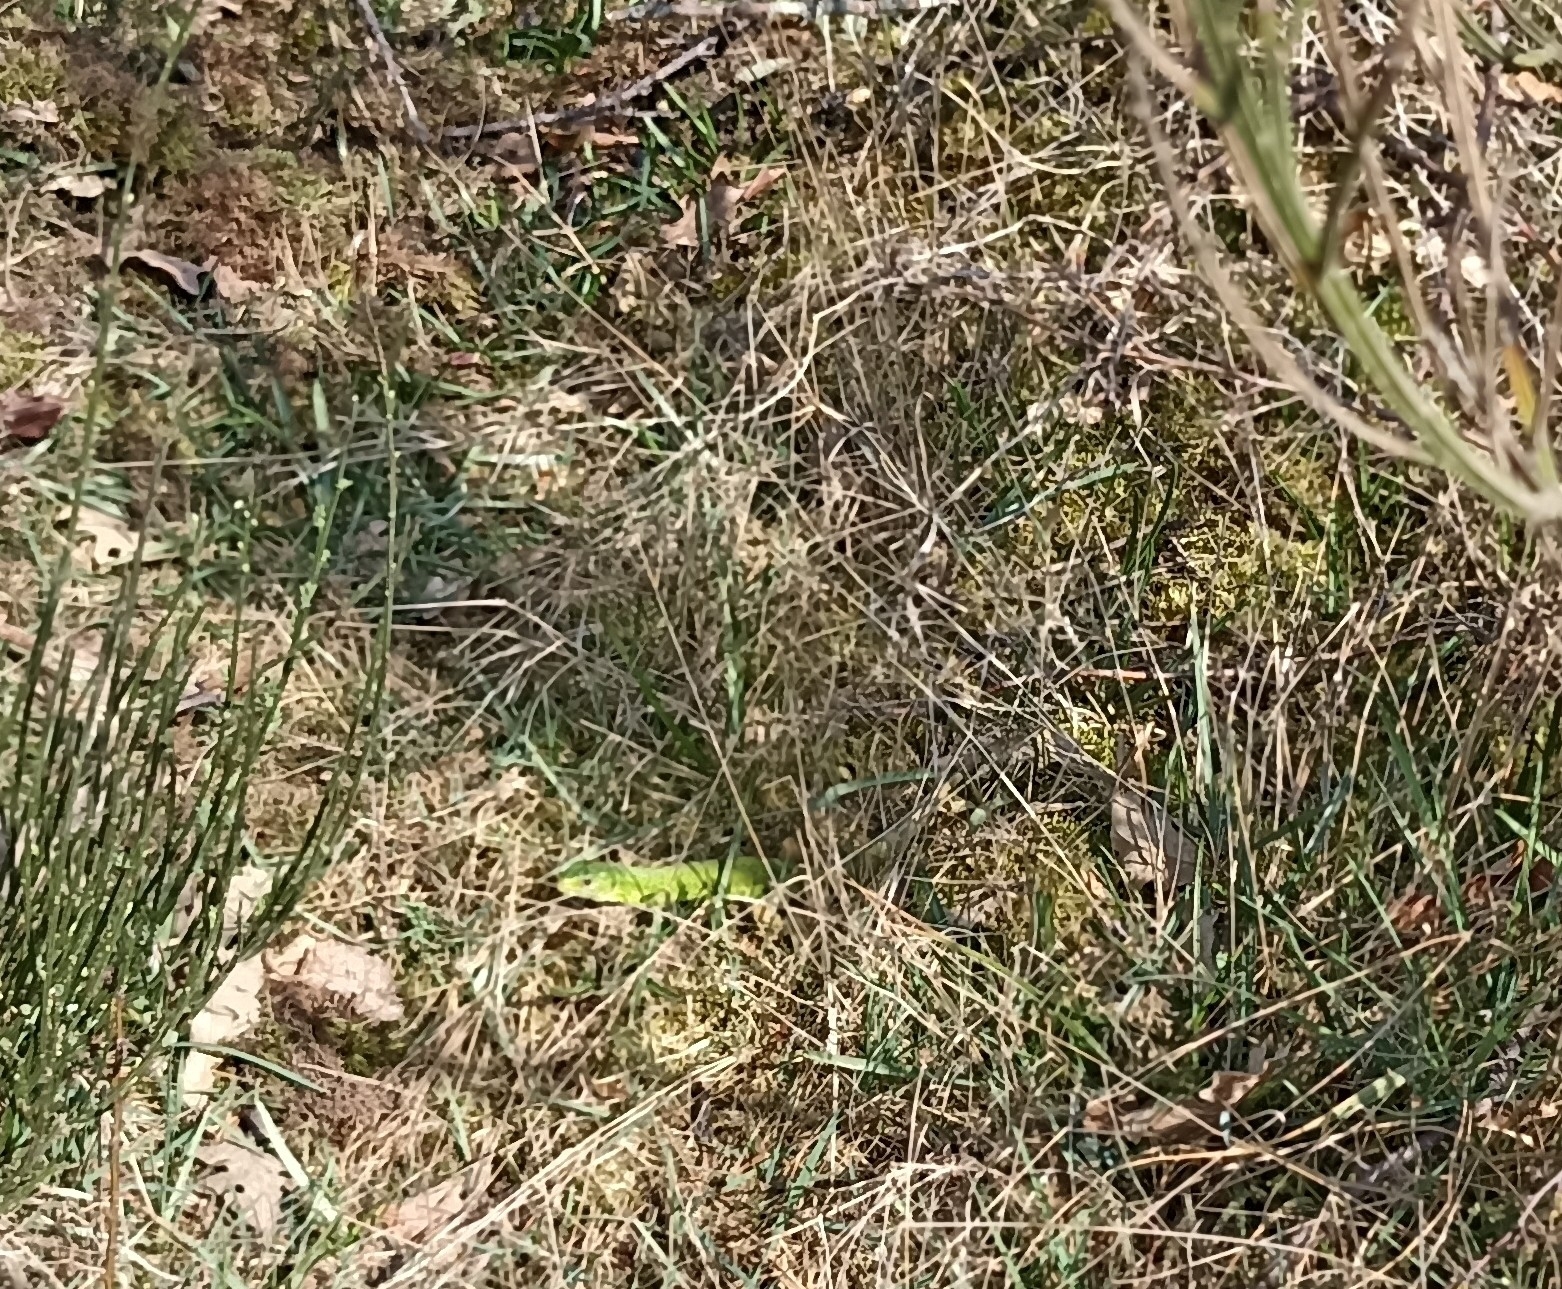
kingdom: Animalia
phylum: Chordata
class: Squamata
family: Lacertidae
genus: Lacerta
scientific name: Lacerta bilineata
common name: Western green lizard
